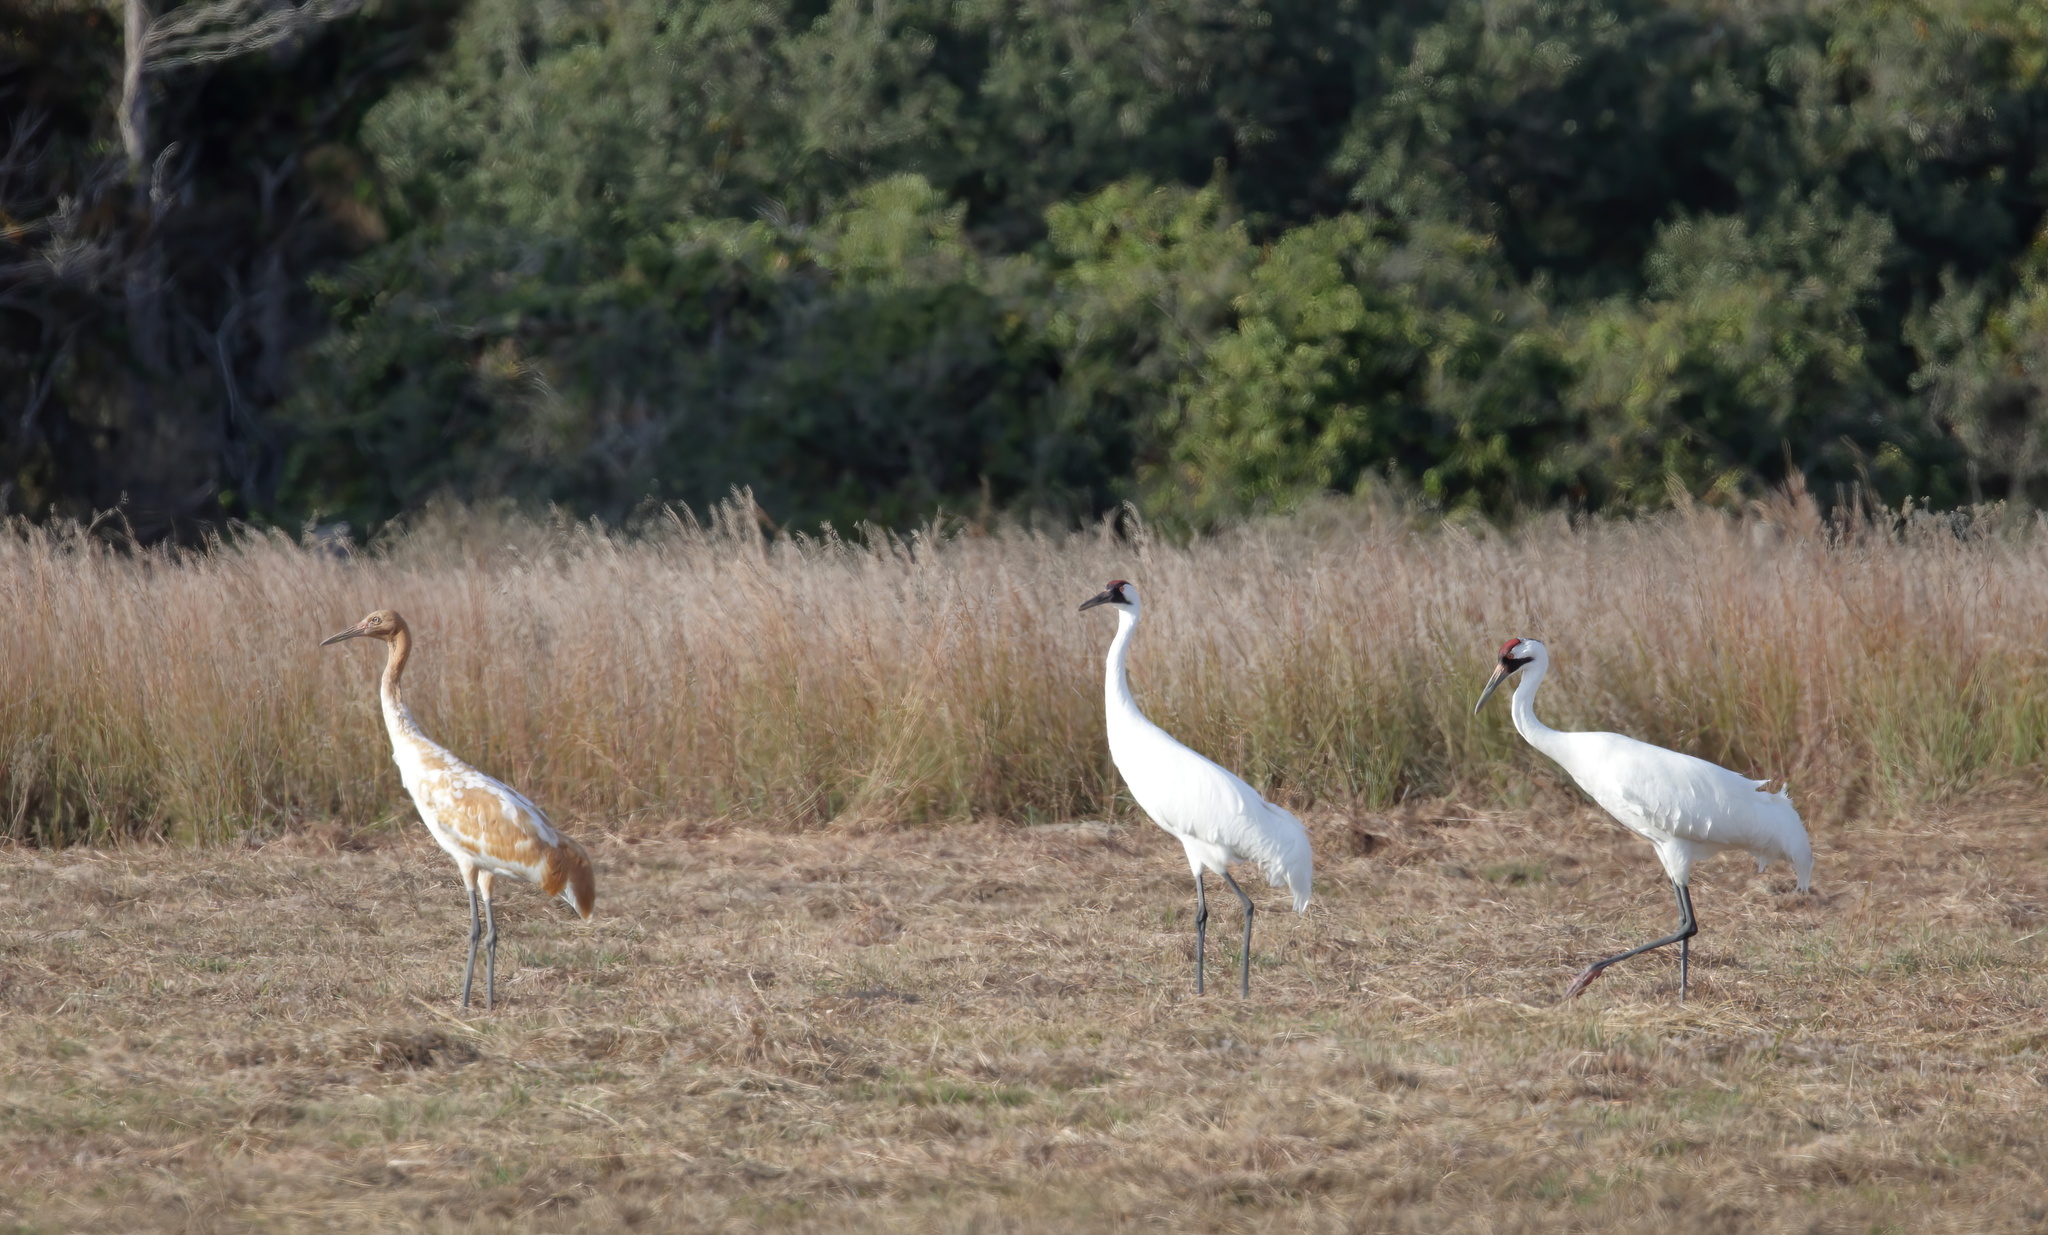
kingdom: Animalia
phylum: Chordata
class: Aves
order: Gruiformes
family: Gruidae
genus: Grus
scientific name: Grus americana
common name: Whooping crane
